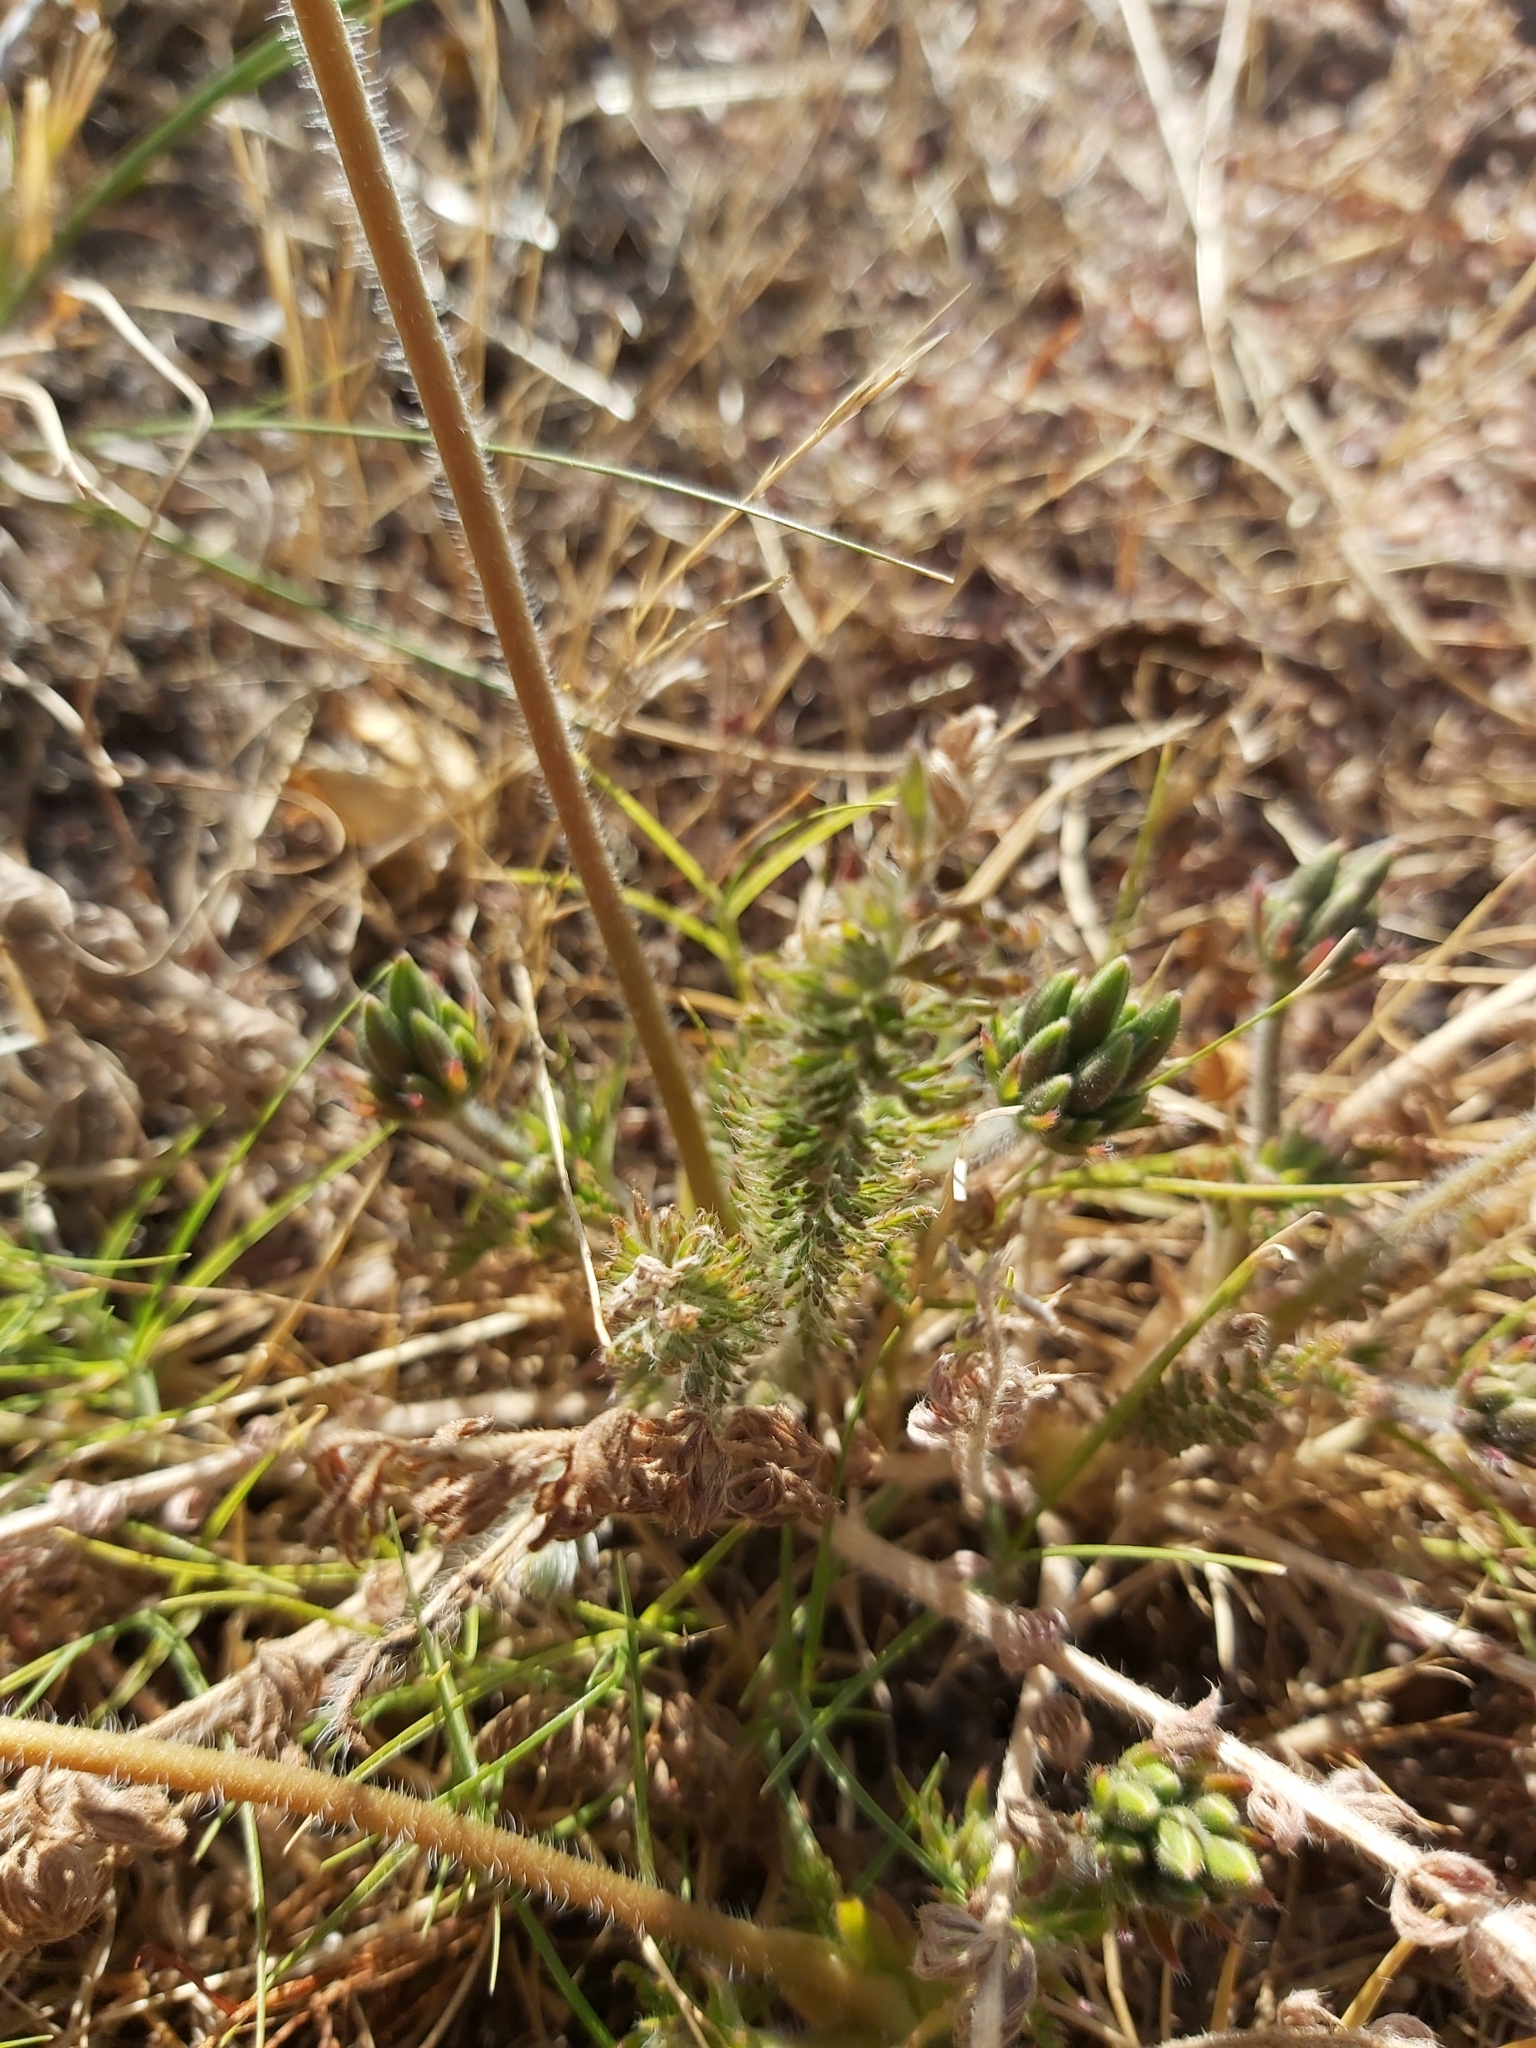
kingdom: Plantae
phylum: Tracheophyta
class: Magnoliopsida
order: Geraniales
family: Geraniaceae
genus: Pelargonium
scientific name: Pelargonium rapaceum
